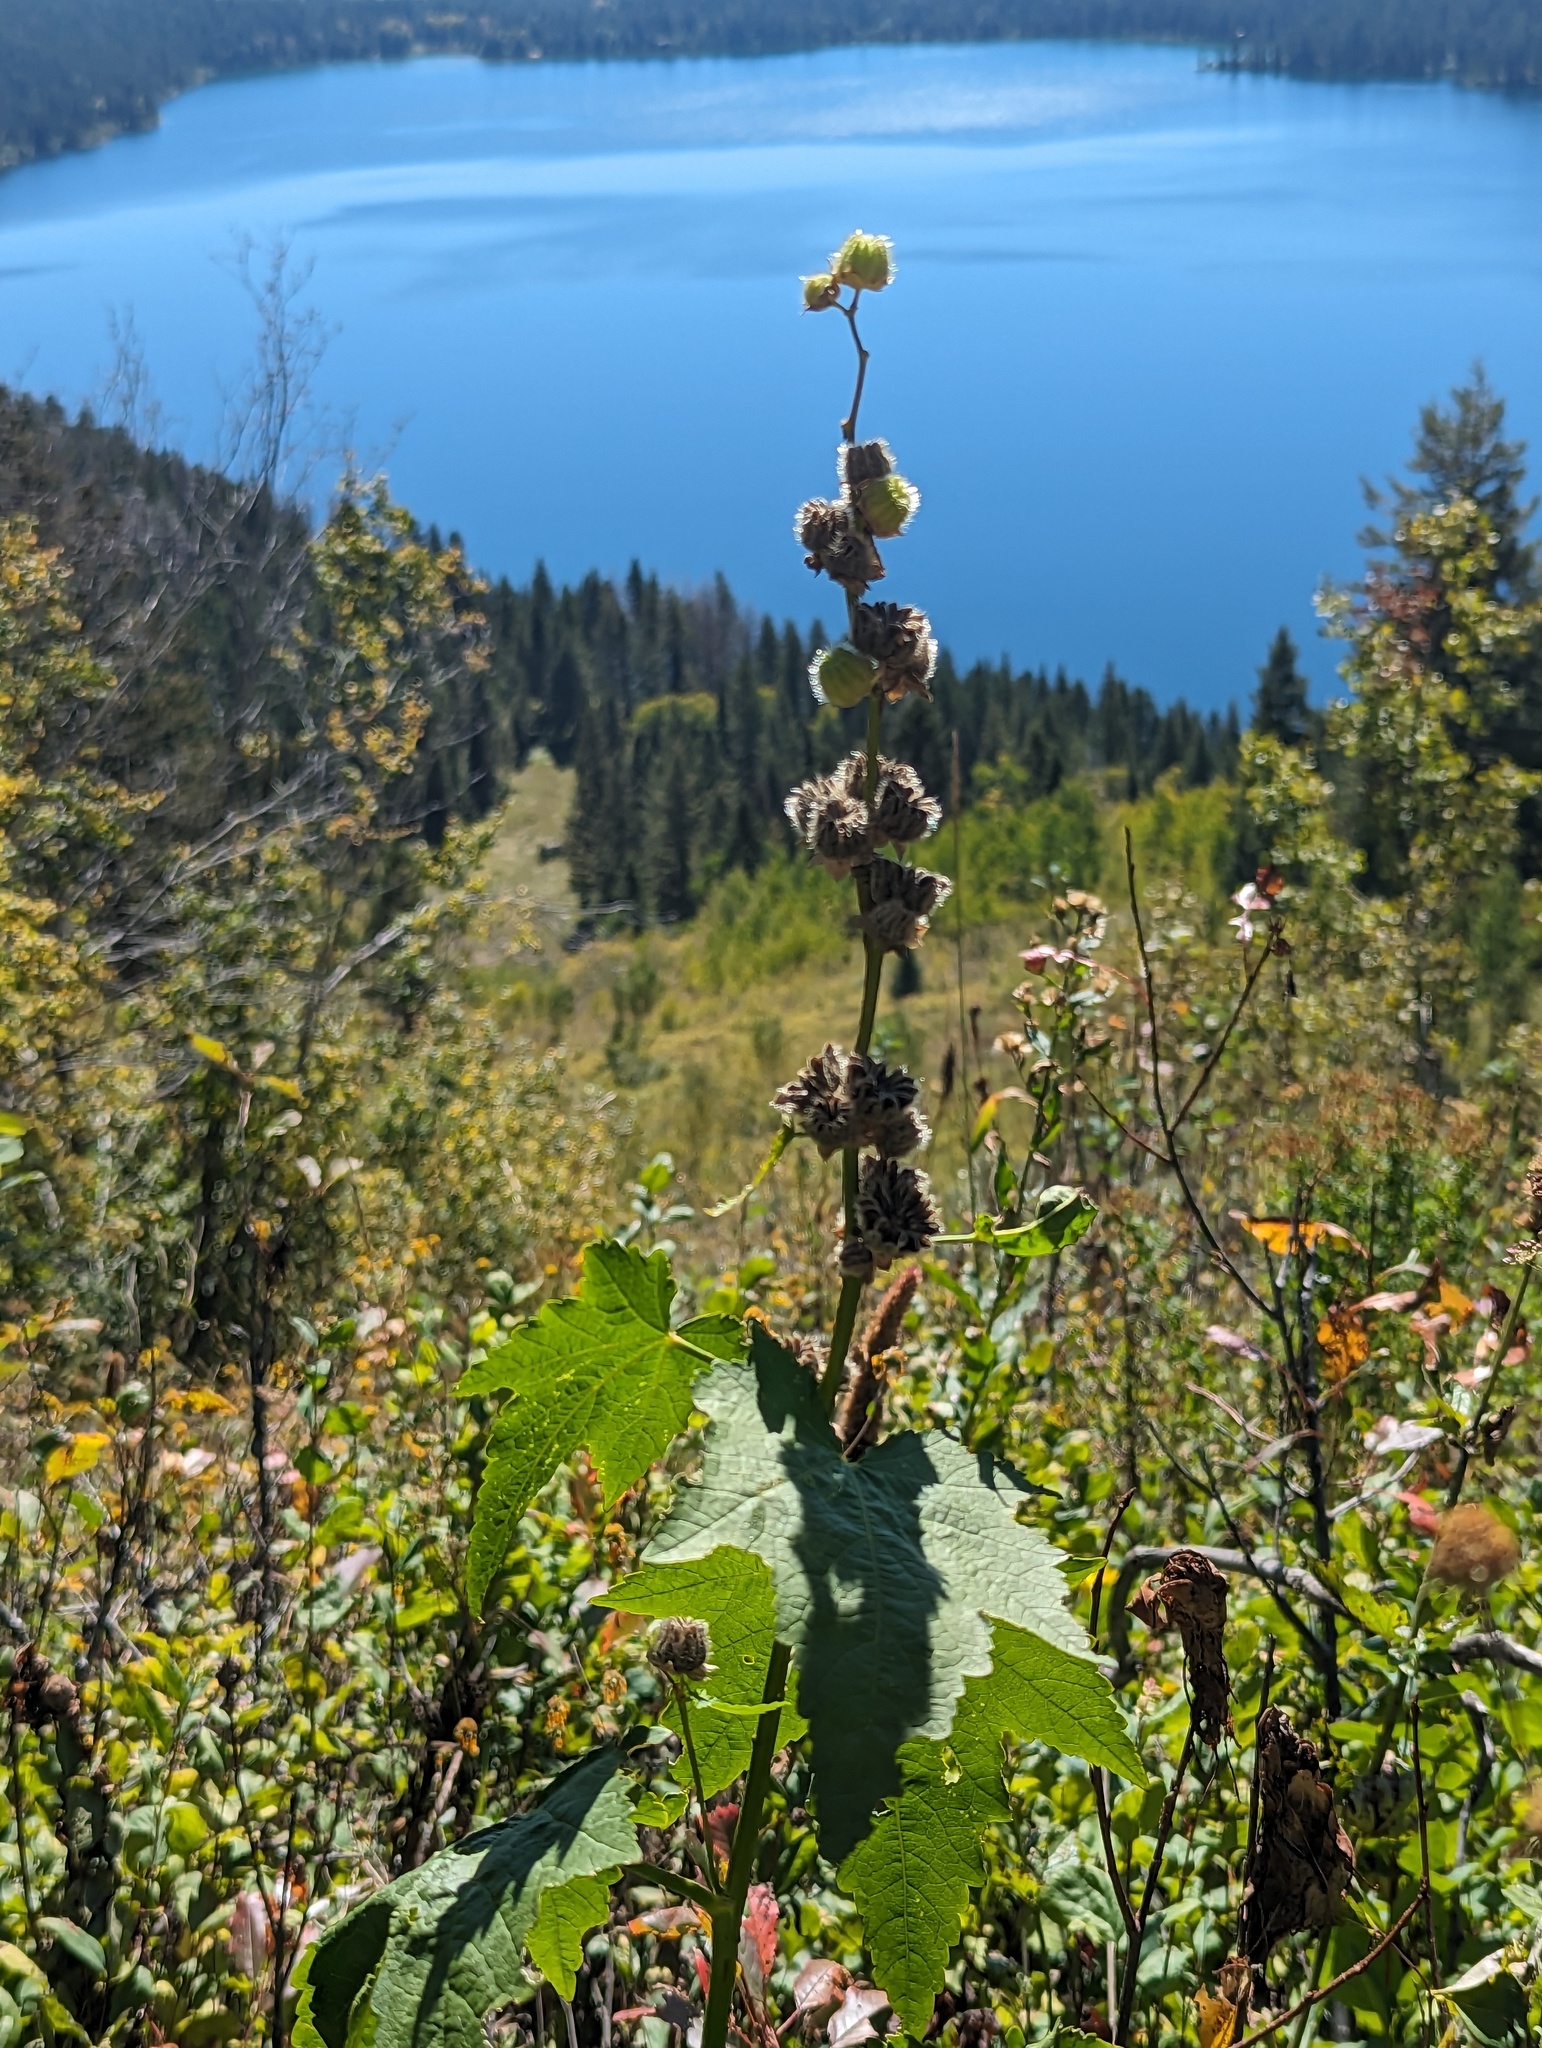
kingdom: Plantae
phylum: Tracheophyta
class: Magnoliopsida
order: Malvales
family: Malvaceae
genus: Iliamna
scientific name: Iliamna rivularis
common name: Wild hollyhock
